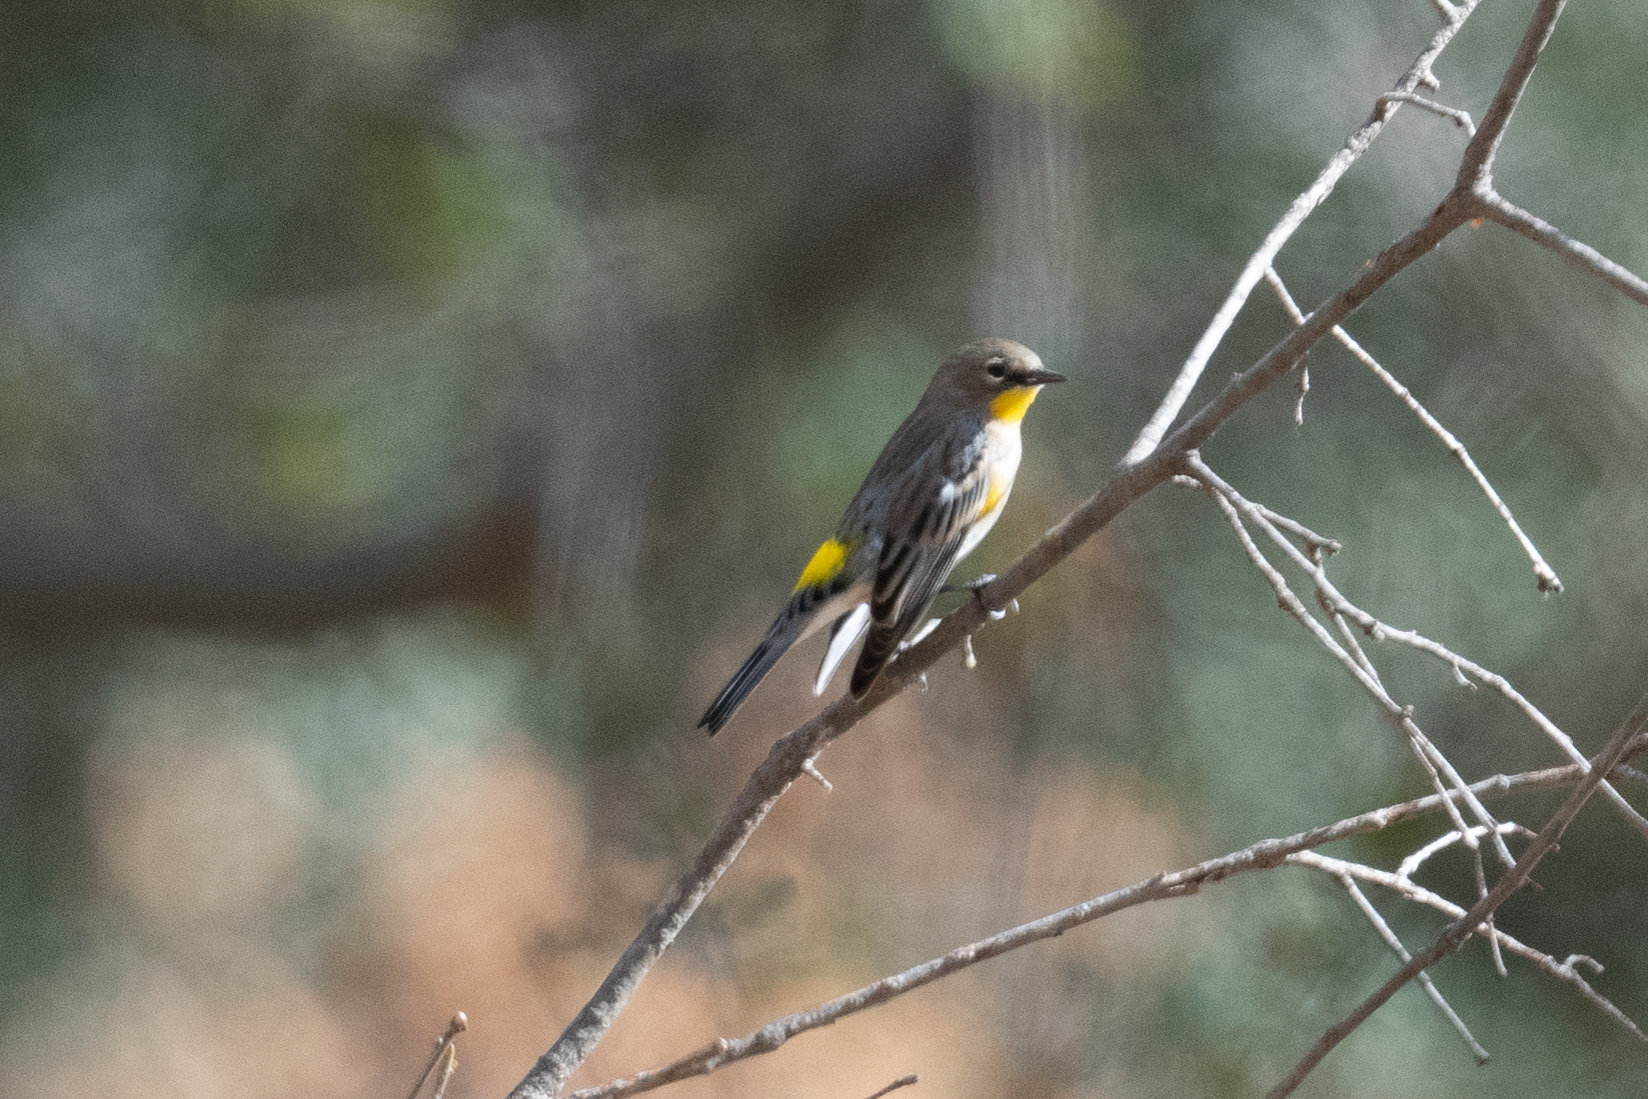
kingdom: Animalia
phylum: Chordata
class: Aves
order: Passeriformes
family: Parulidae
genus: Setophaga
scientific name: Setophaga coronata
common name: Myrtle warbler
